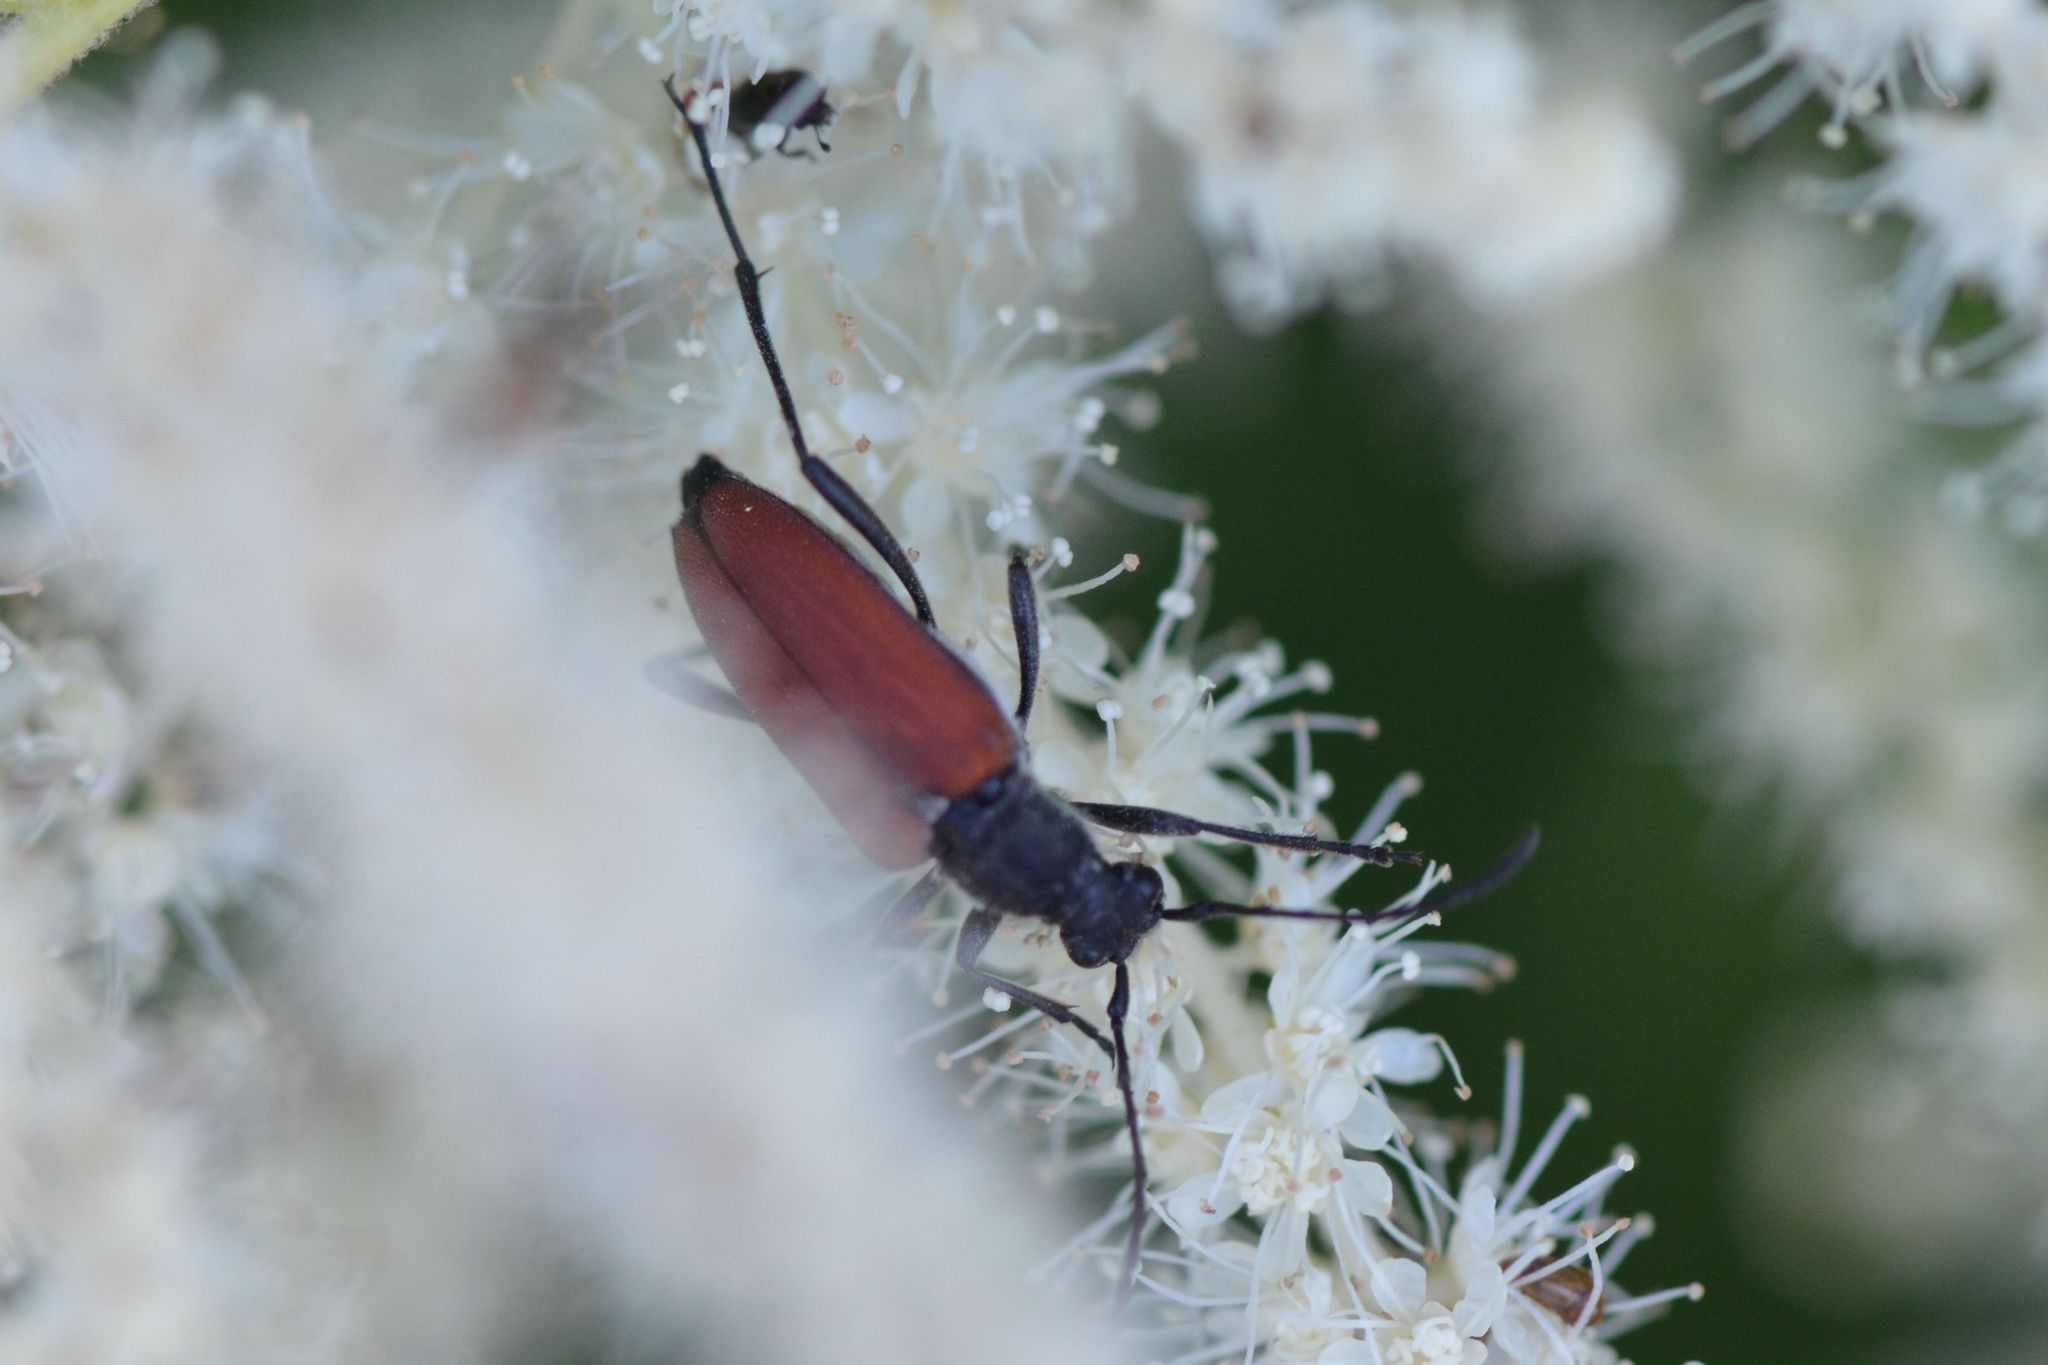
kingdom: Animalia
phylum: Arthropoda
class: Insecta
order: Coleoptera
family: Cerambycidae
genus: Anastrangalia
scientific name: Anastrangalia sanguinolenta
